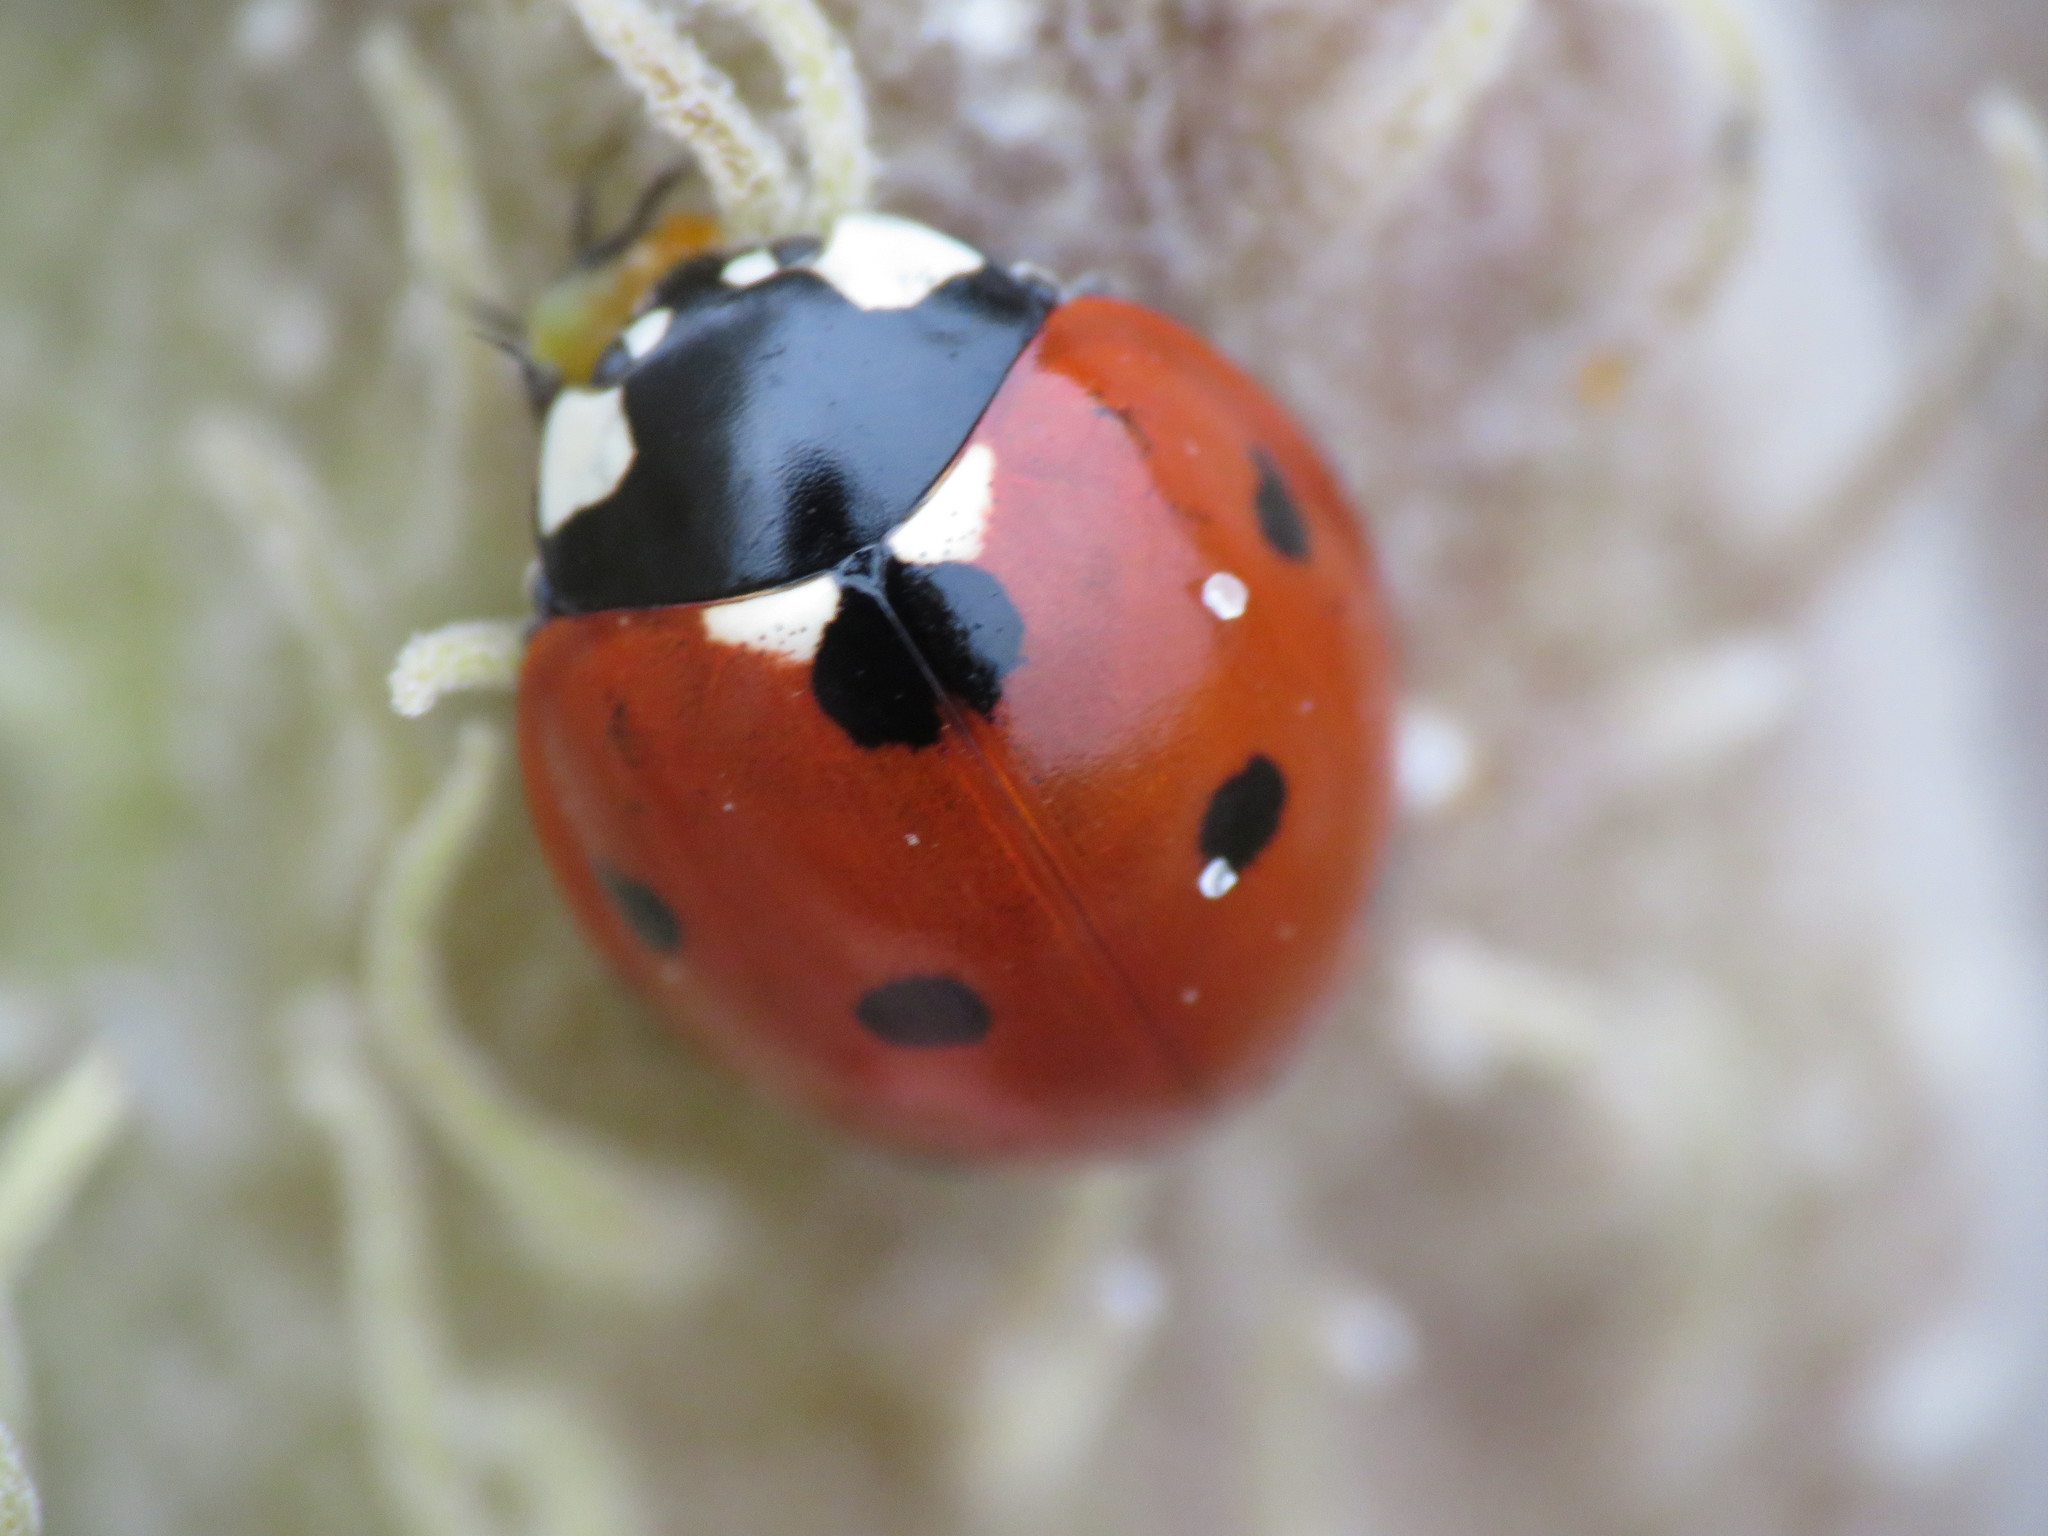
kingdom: Animalia
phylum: Arthropoda
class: Insecta
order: Coleoptera
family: Coccinellidae
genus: Coccinella
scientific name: Coccinella septempunctata
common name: Sevenspotted lady beetle
